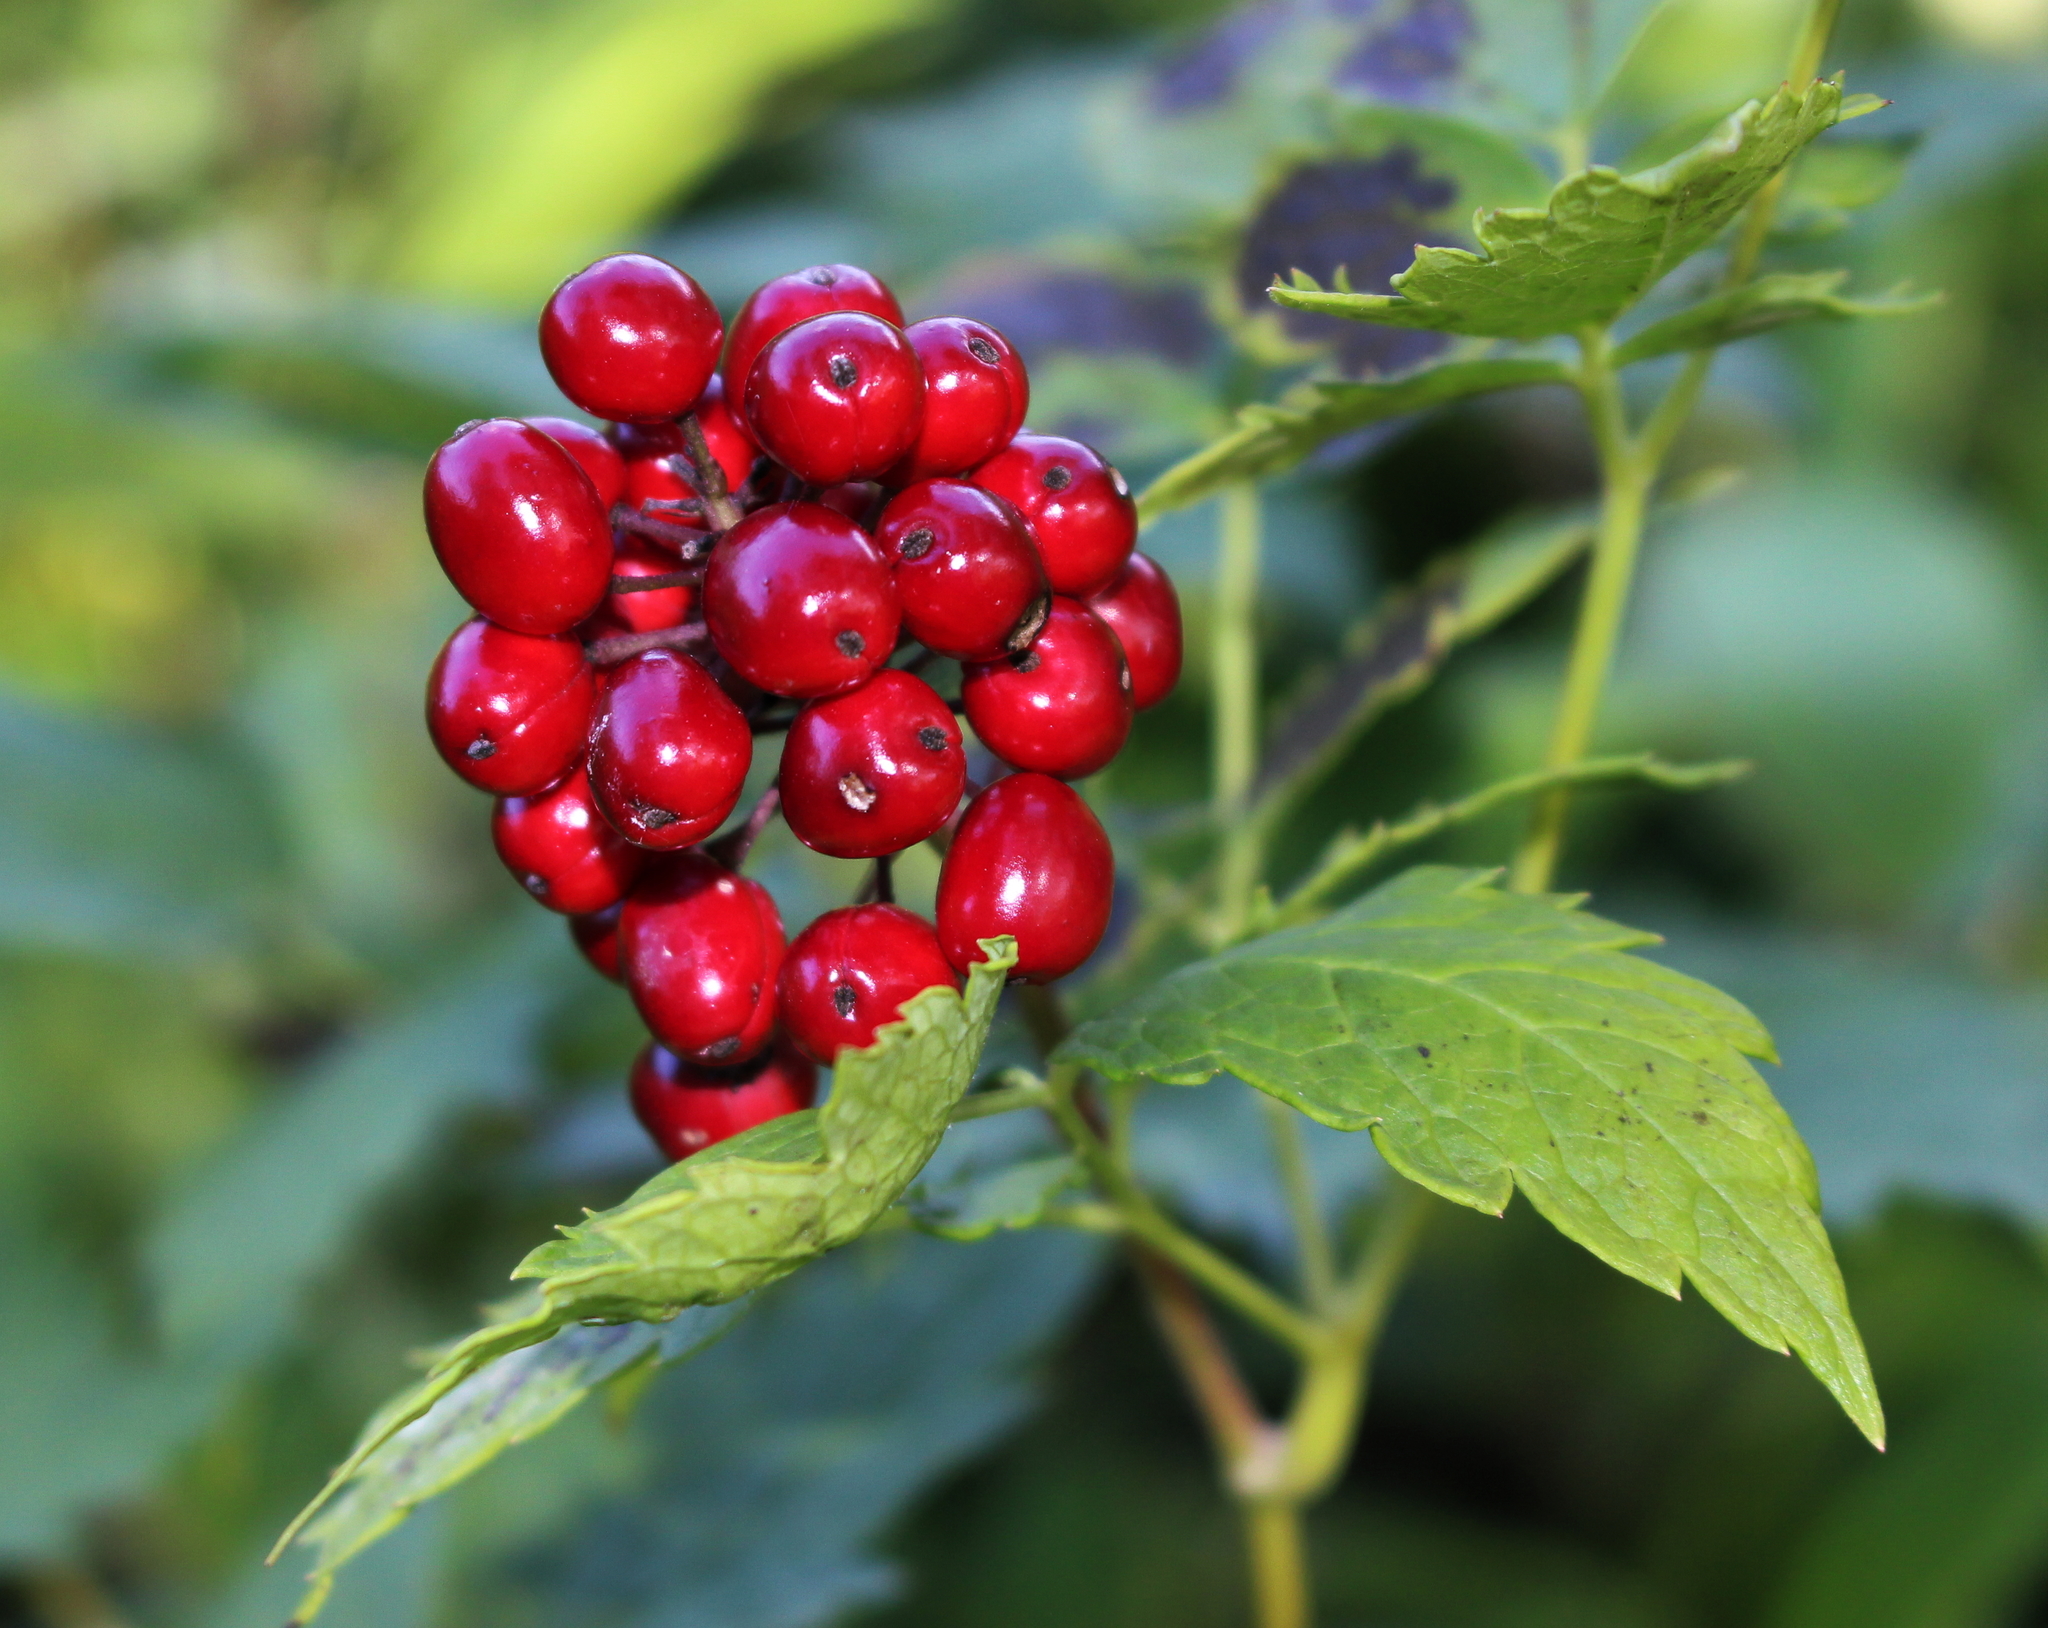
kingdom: Plantae
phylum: Tracheophyta
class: Magnoliopsida
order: Ranunculales
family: Ranunculaceae
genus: Actaea
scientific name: Actaea rubra
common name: Red baneberry
